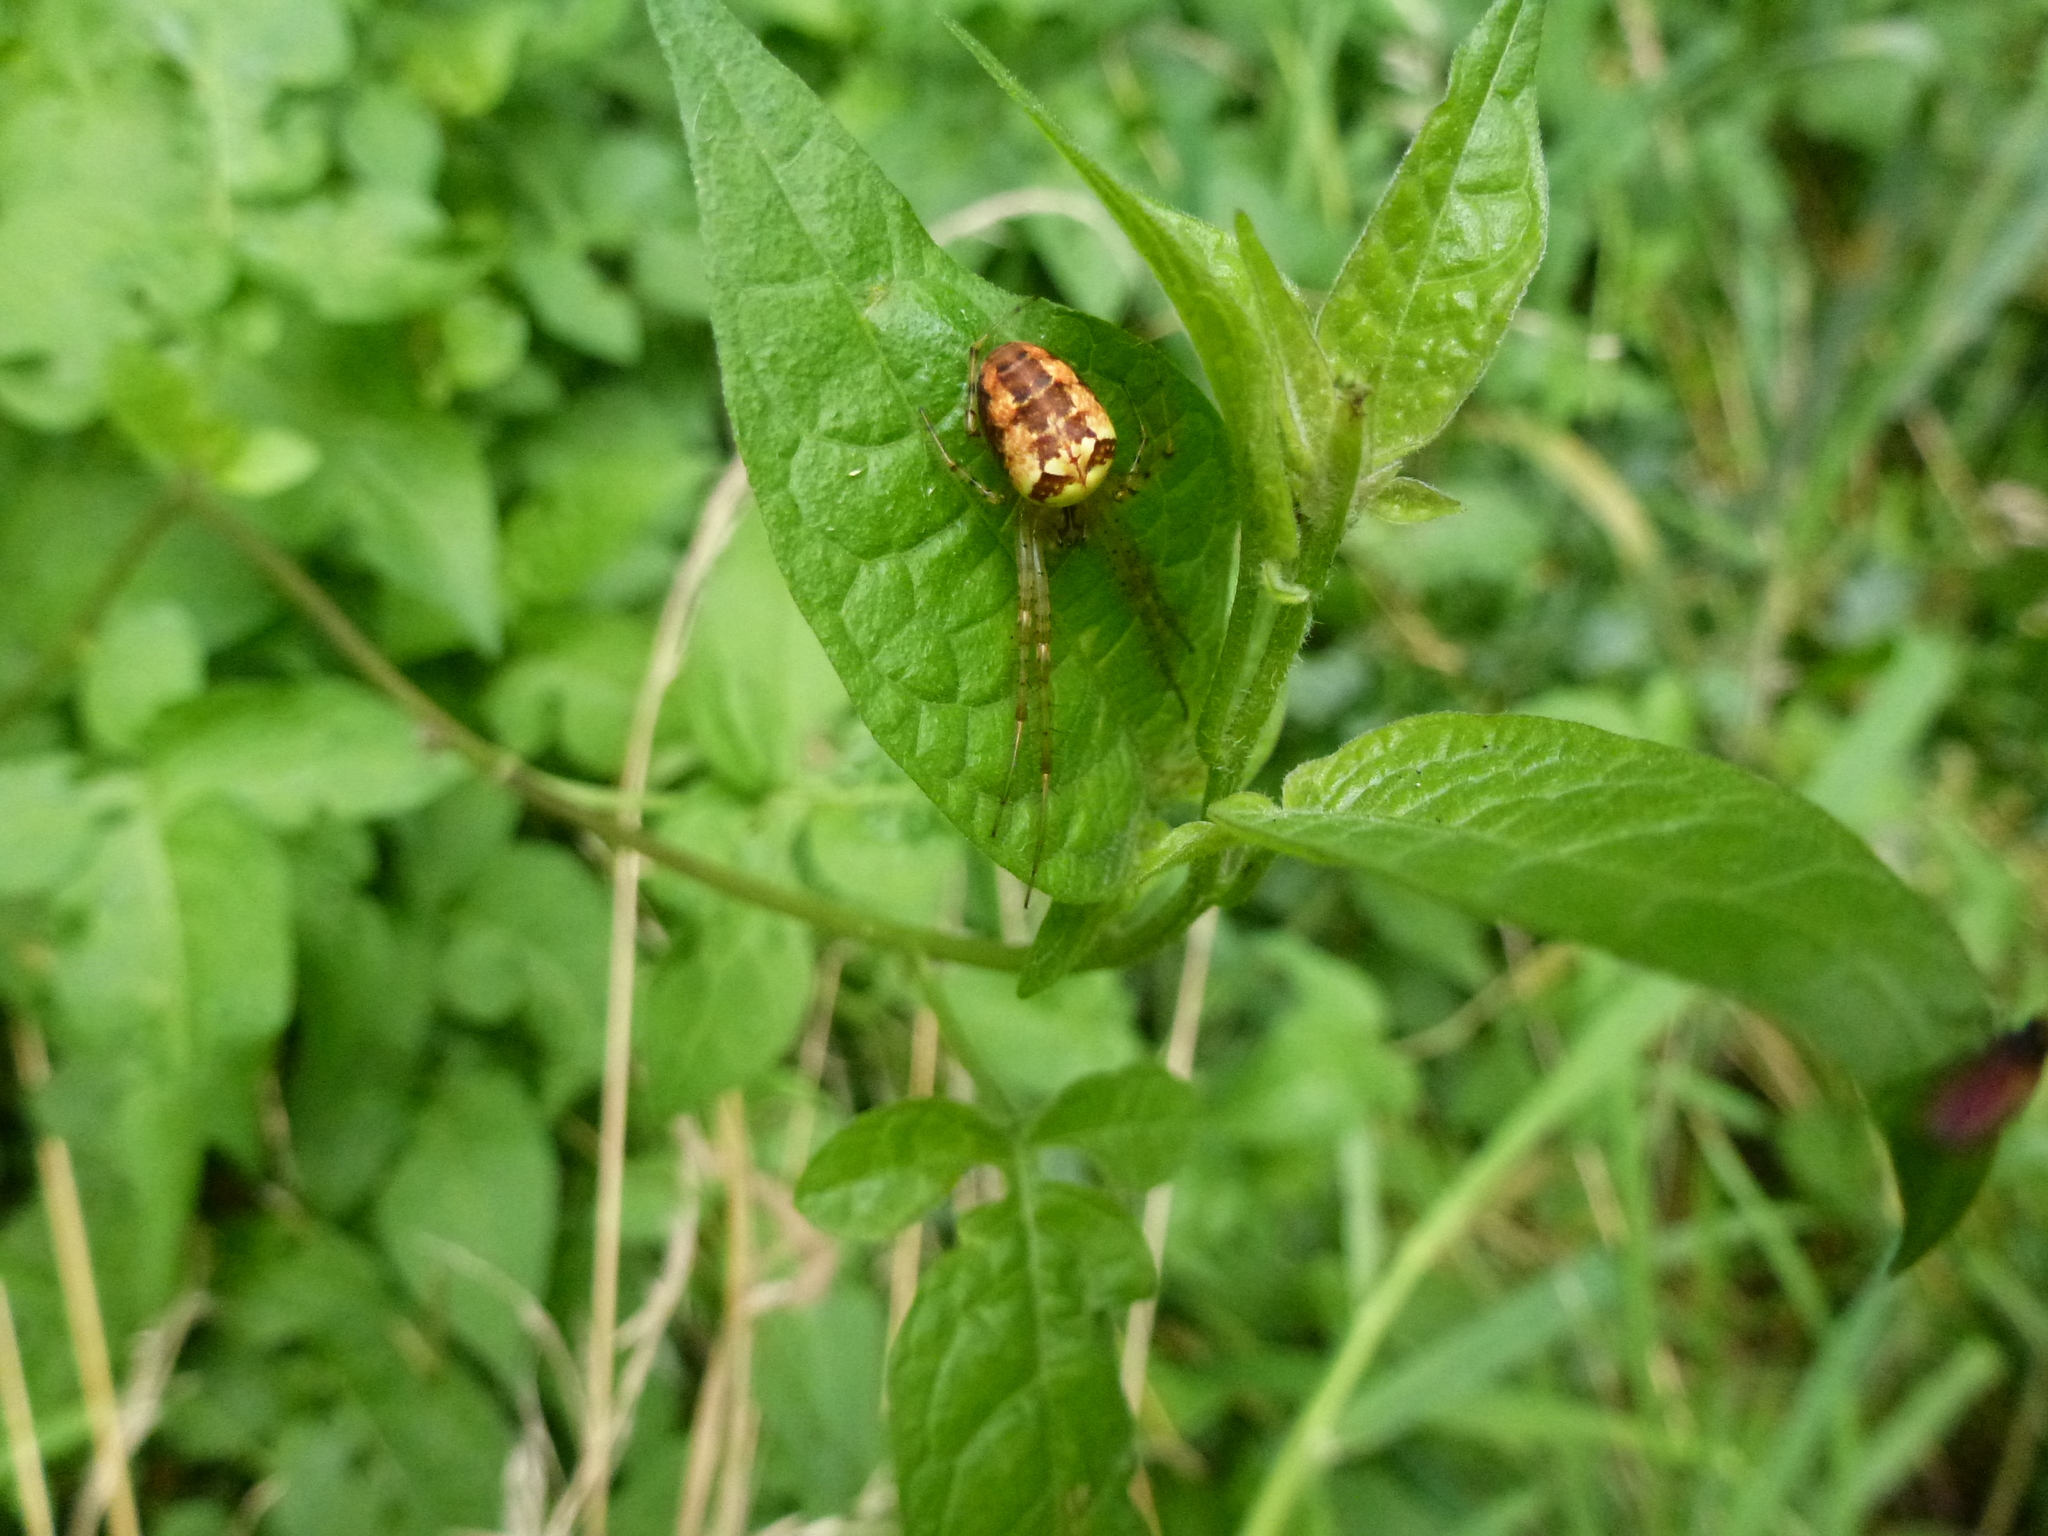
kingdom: Animalia
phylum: Arthropoda
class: Arachnida
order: Araneae
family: Tetragnathidae
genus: Metellina
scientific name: Metellina segmentata
